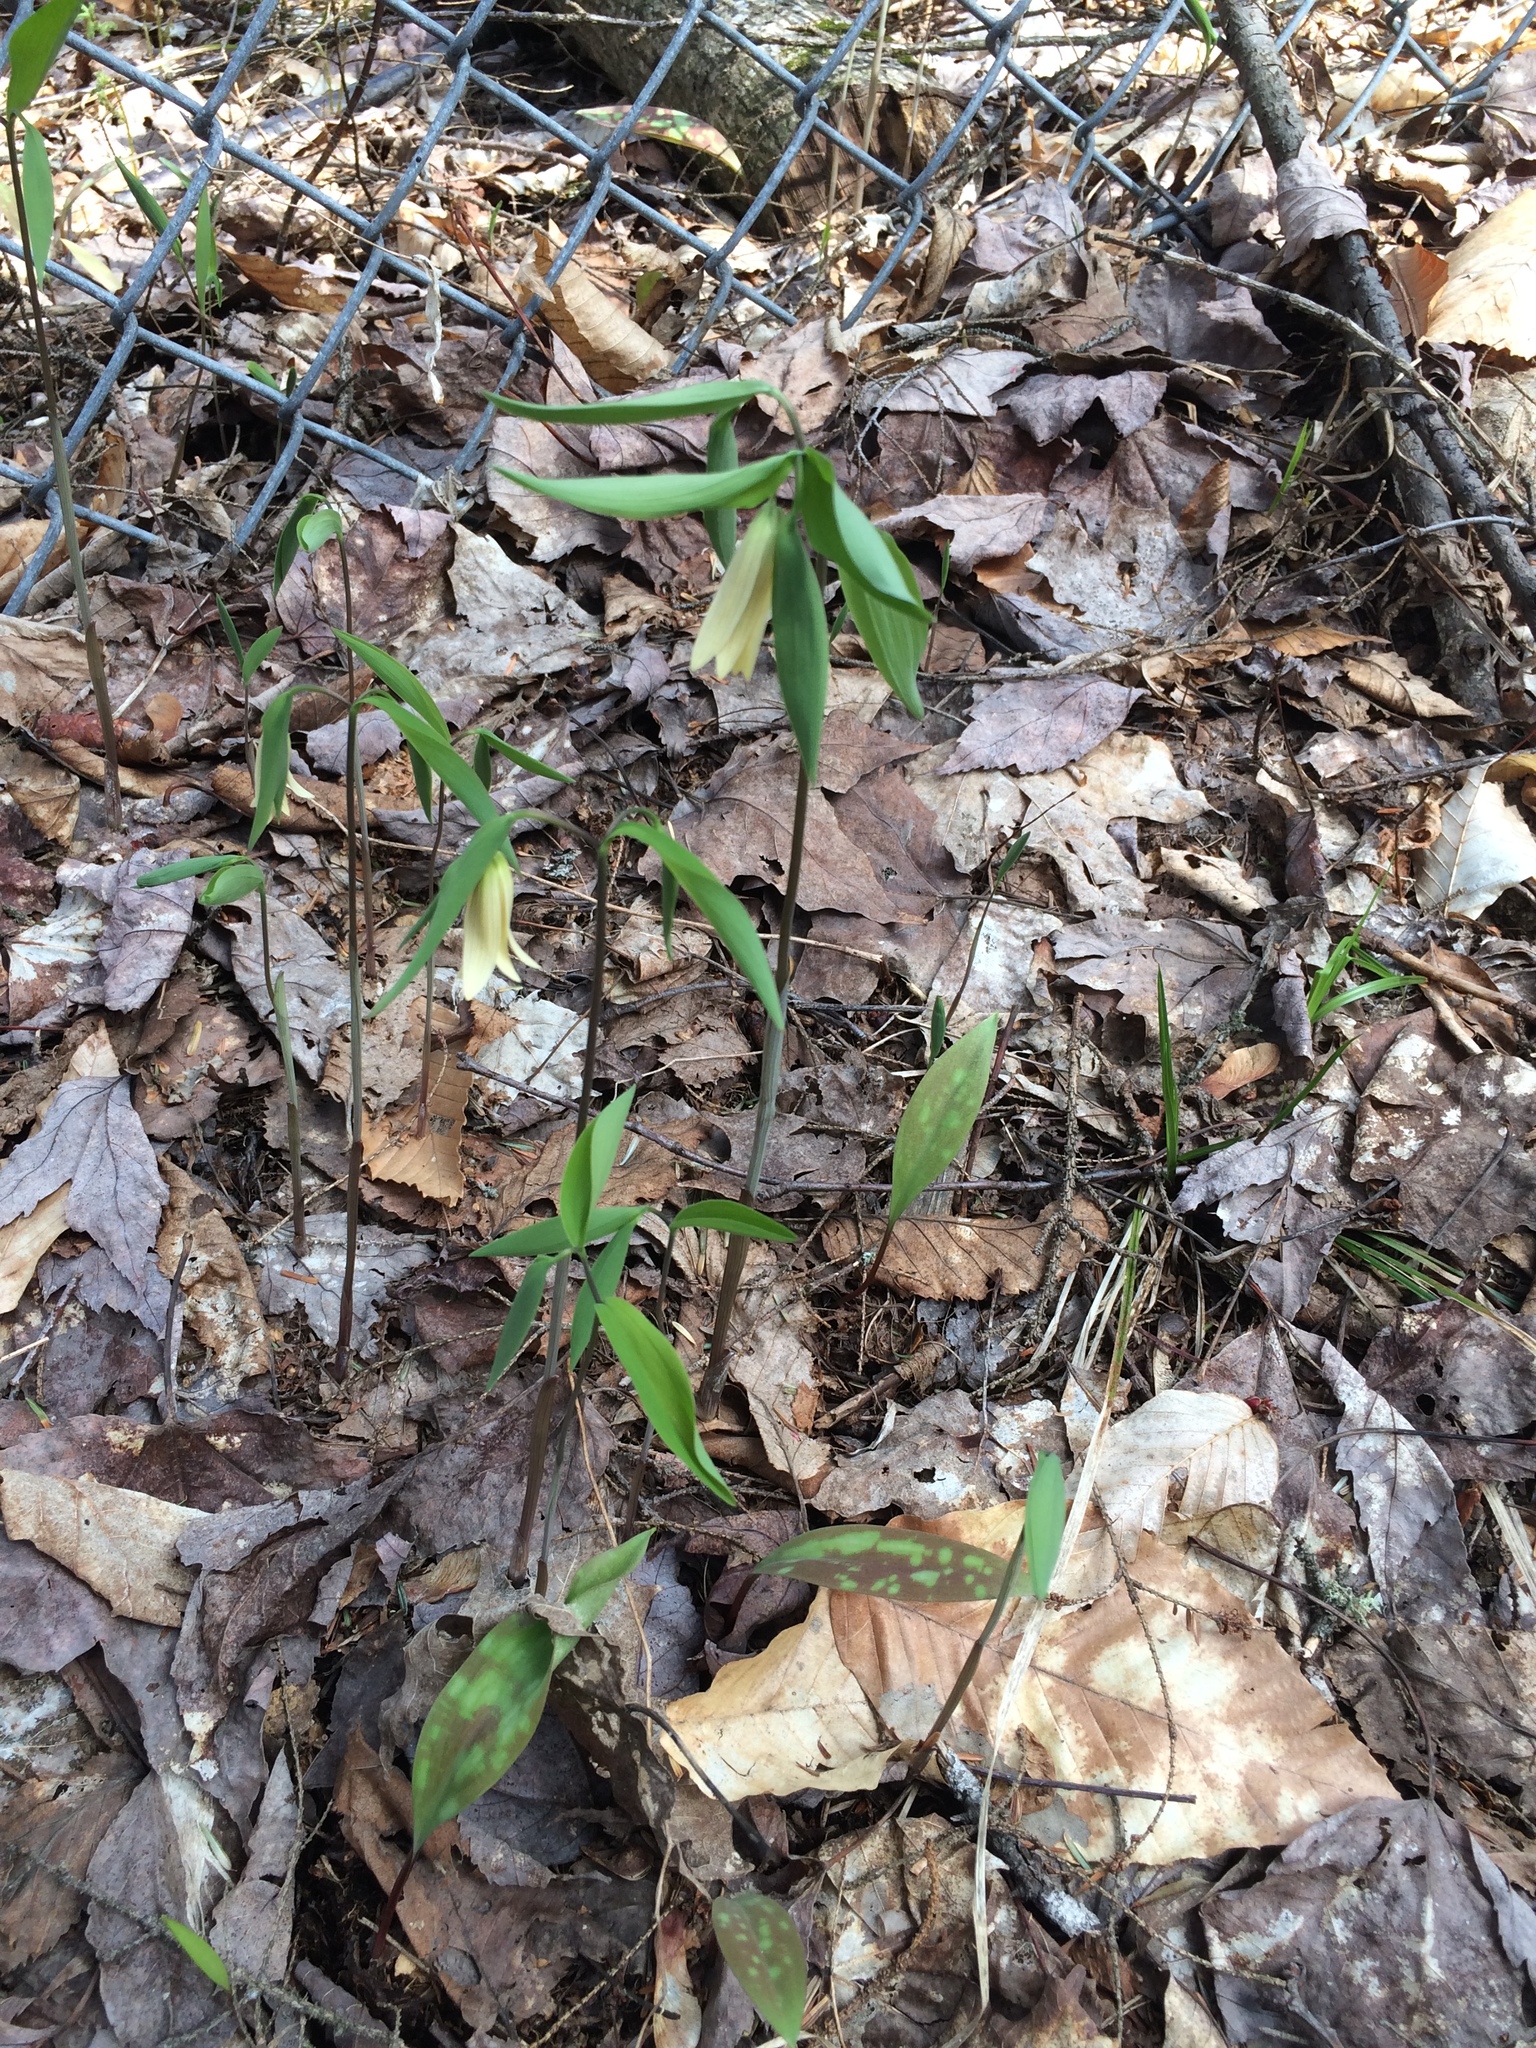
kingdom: Plantae
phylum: Tracheophyta
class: Liliopsida
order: Liliales
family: Colchicaceae
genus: Uvularia
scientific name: Uvularia sessilifolia
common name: Straw-lily
